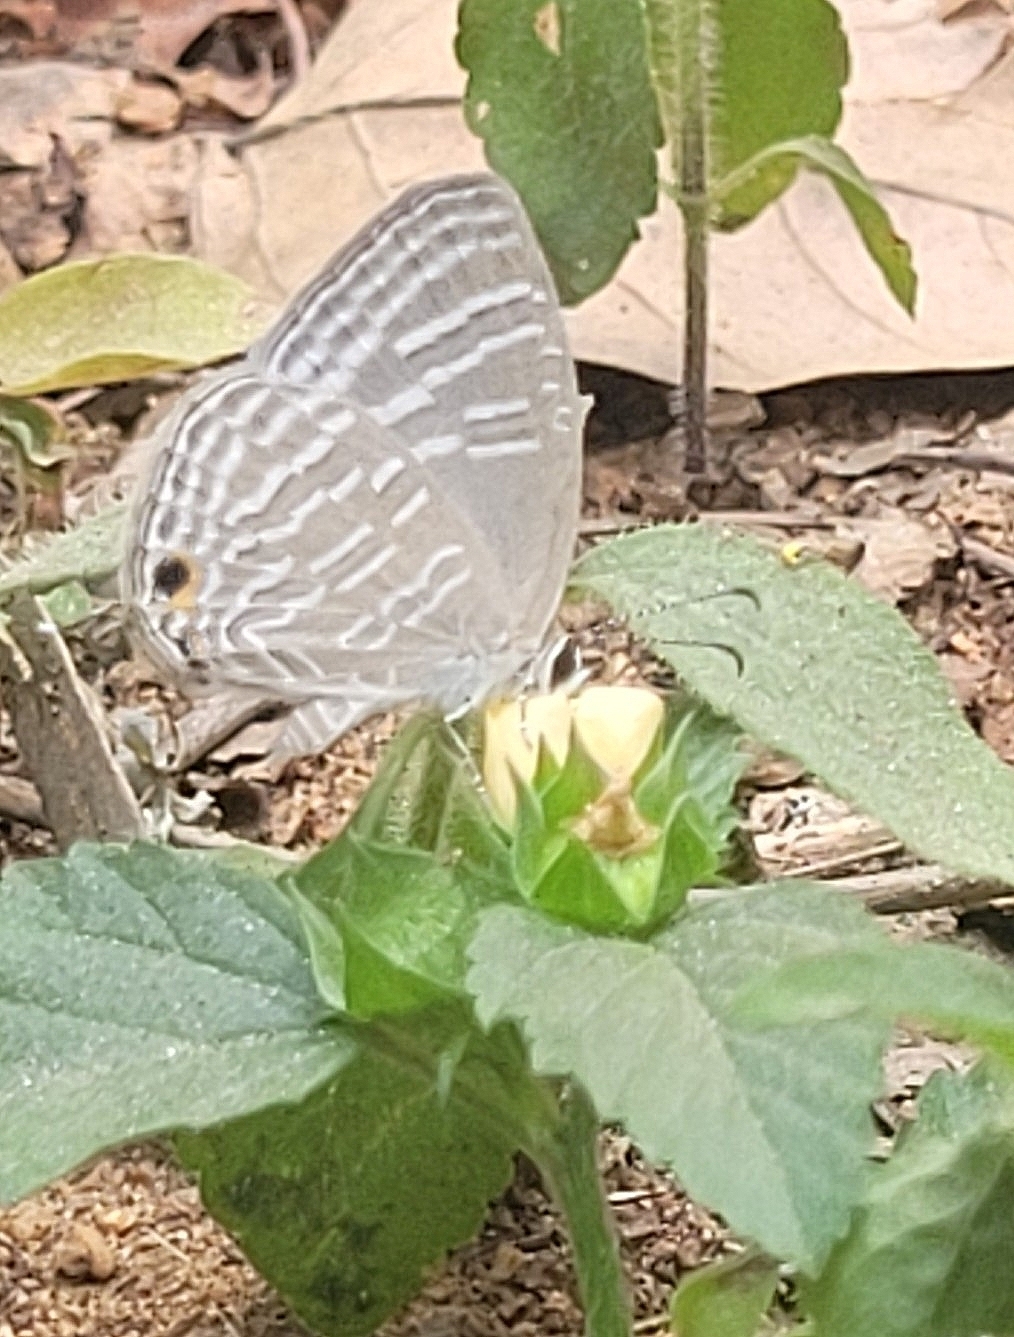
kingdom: Animalia
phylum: Arthropoda
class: Insecta
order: Lepidoptera
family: Lycaenidae
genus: Jamides
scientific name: Jamides celeno
